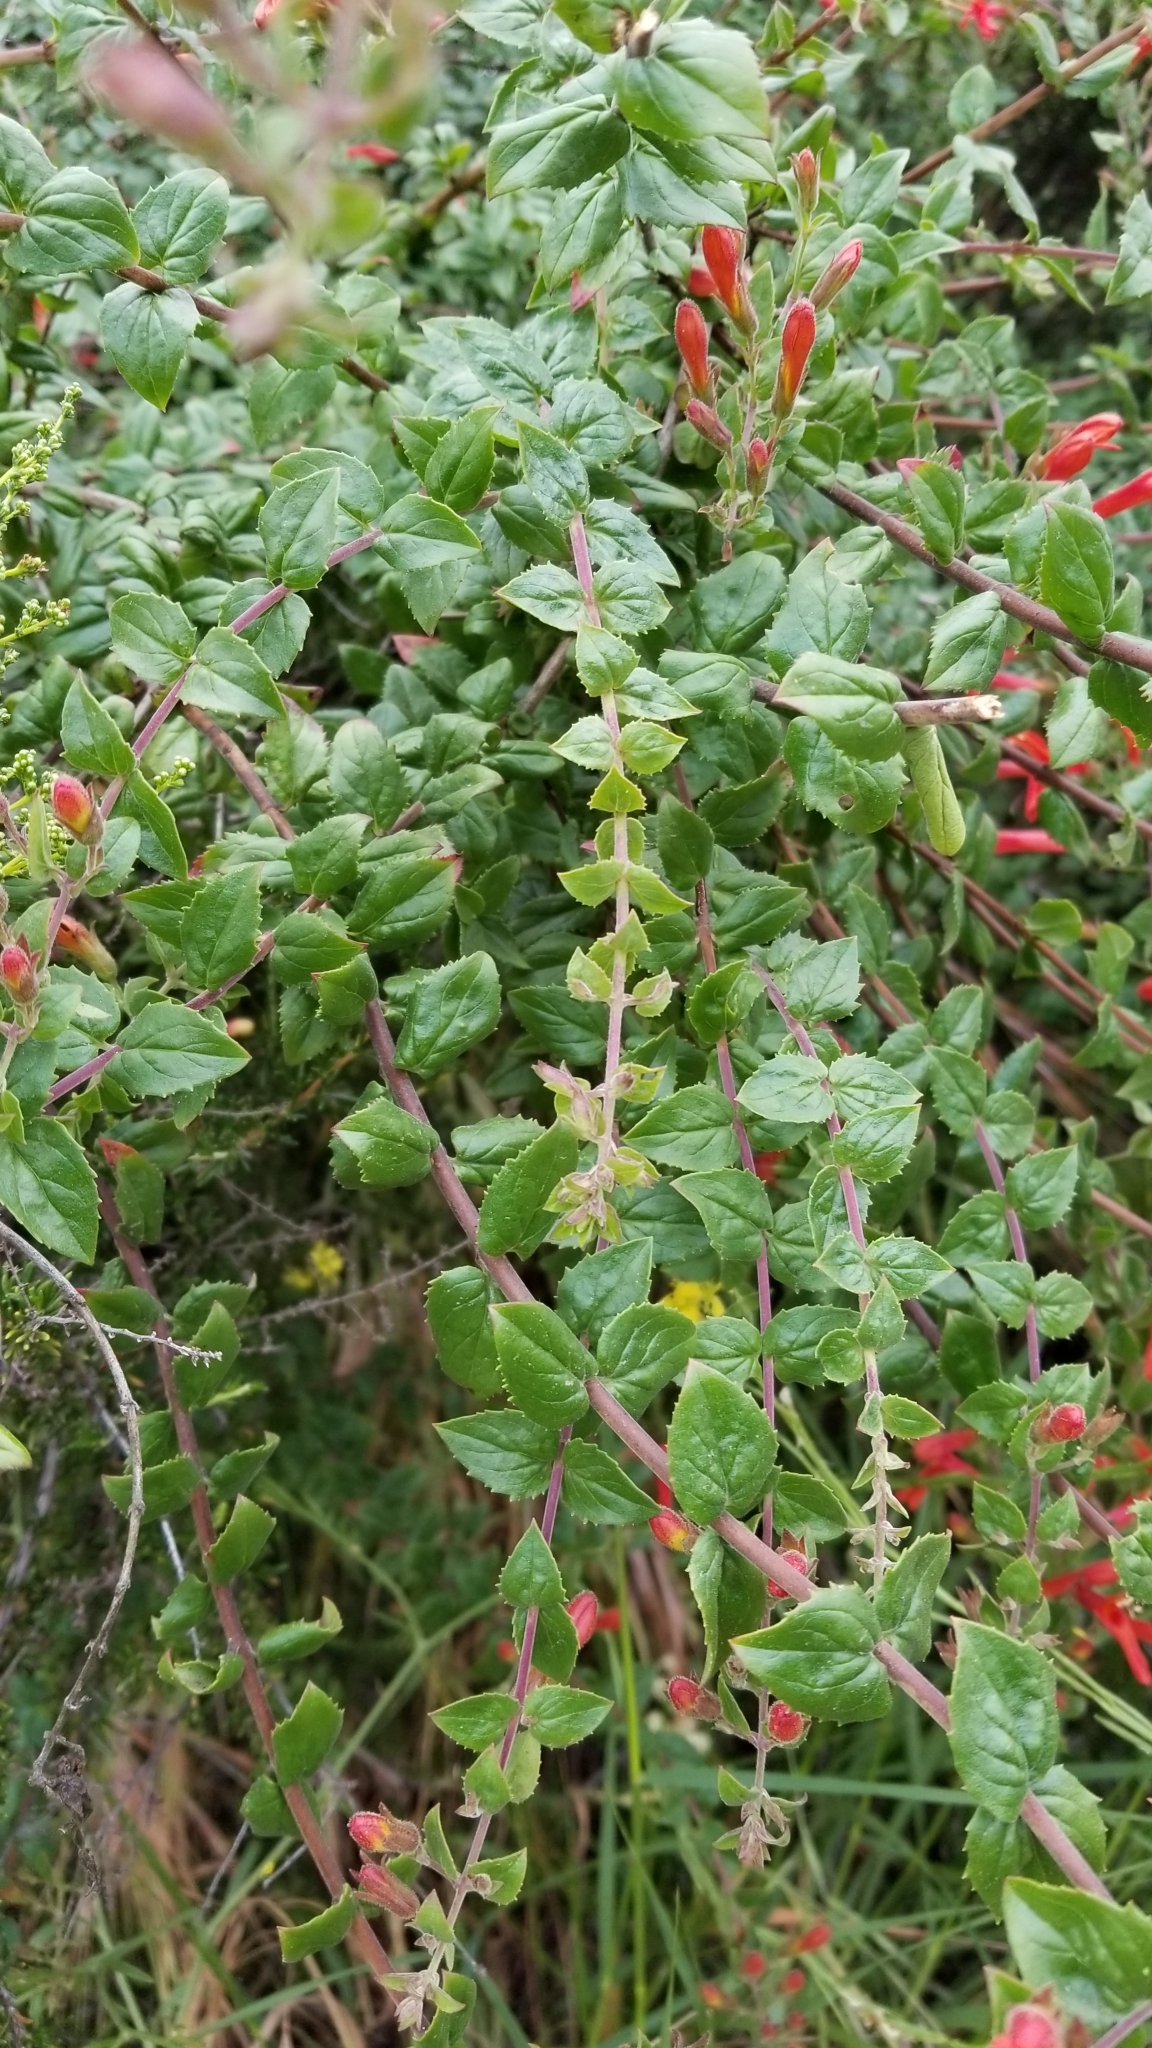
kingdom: Plantae
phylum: Tracheophyta
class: Magnoliopsida
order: Lamiales
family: Plantaginaceae
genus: Keckiella
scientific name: Keckiella cordifolia
